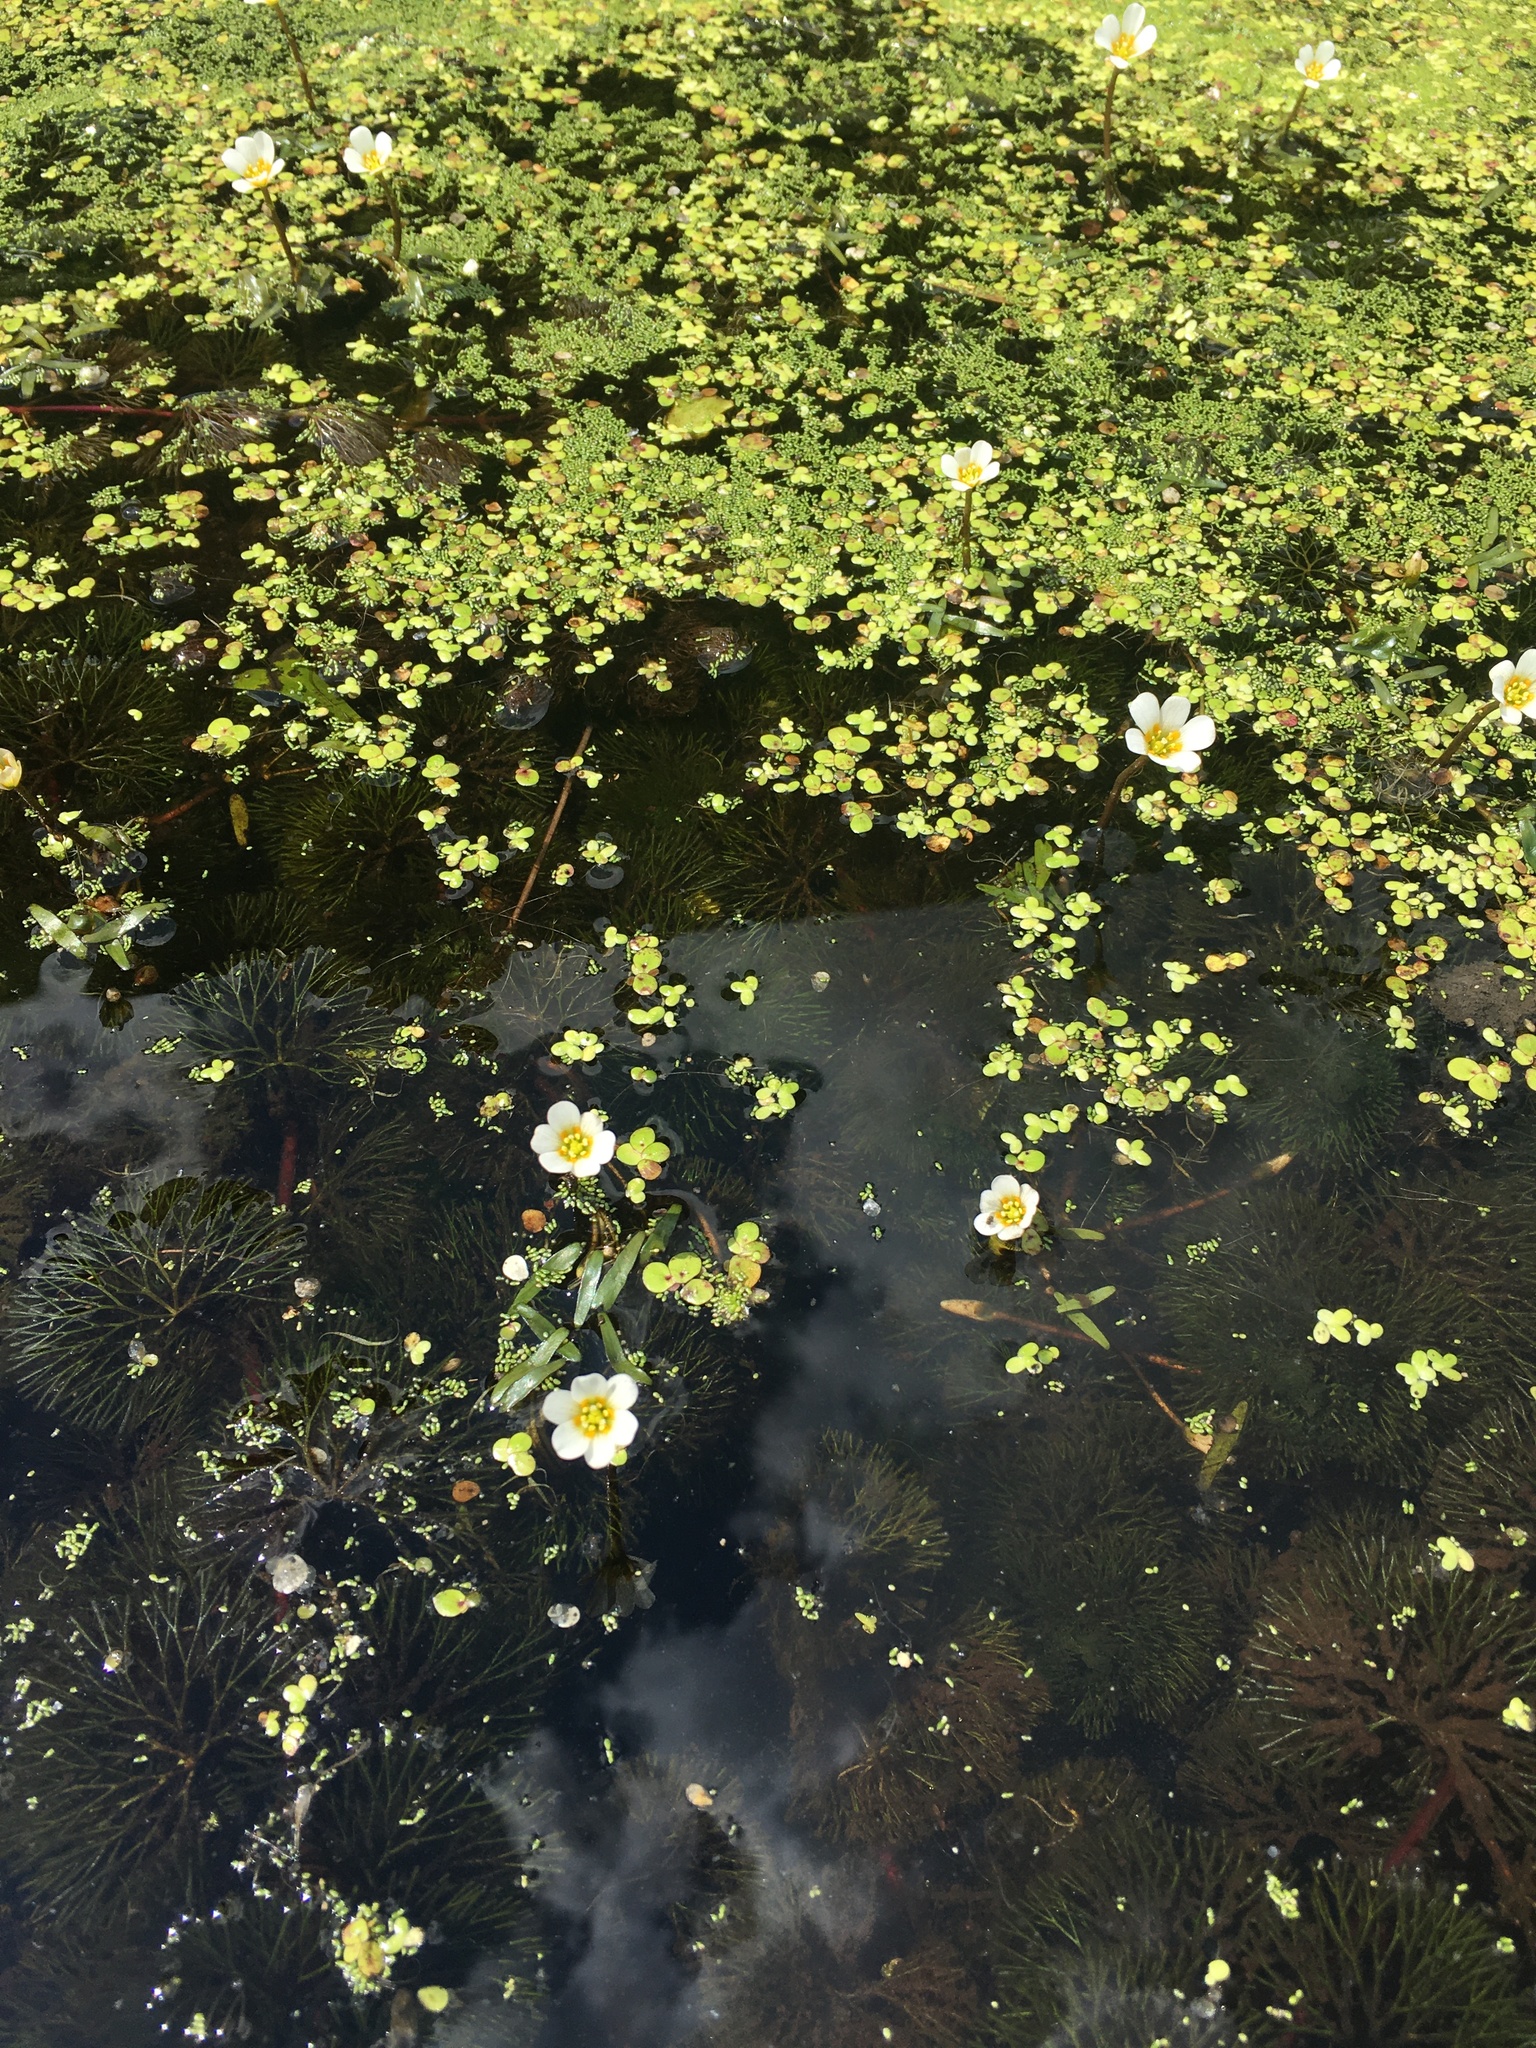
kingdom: Plantae
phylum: Tracheophyta
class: Magnoliopsida
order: Nymphaeales
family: Cabombaceae
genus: Cabomba
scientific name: Cabomba caroliniana
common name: Fanwort
